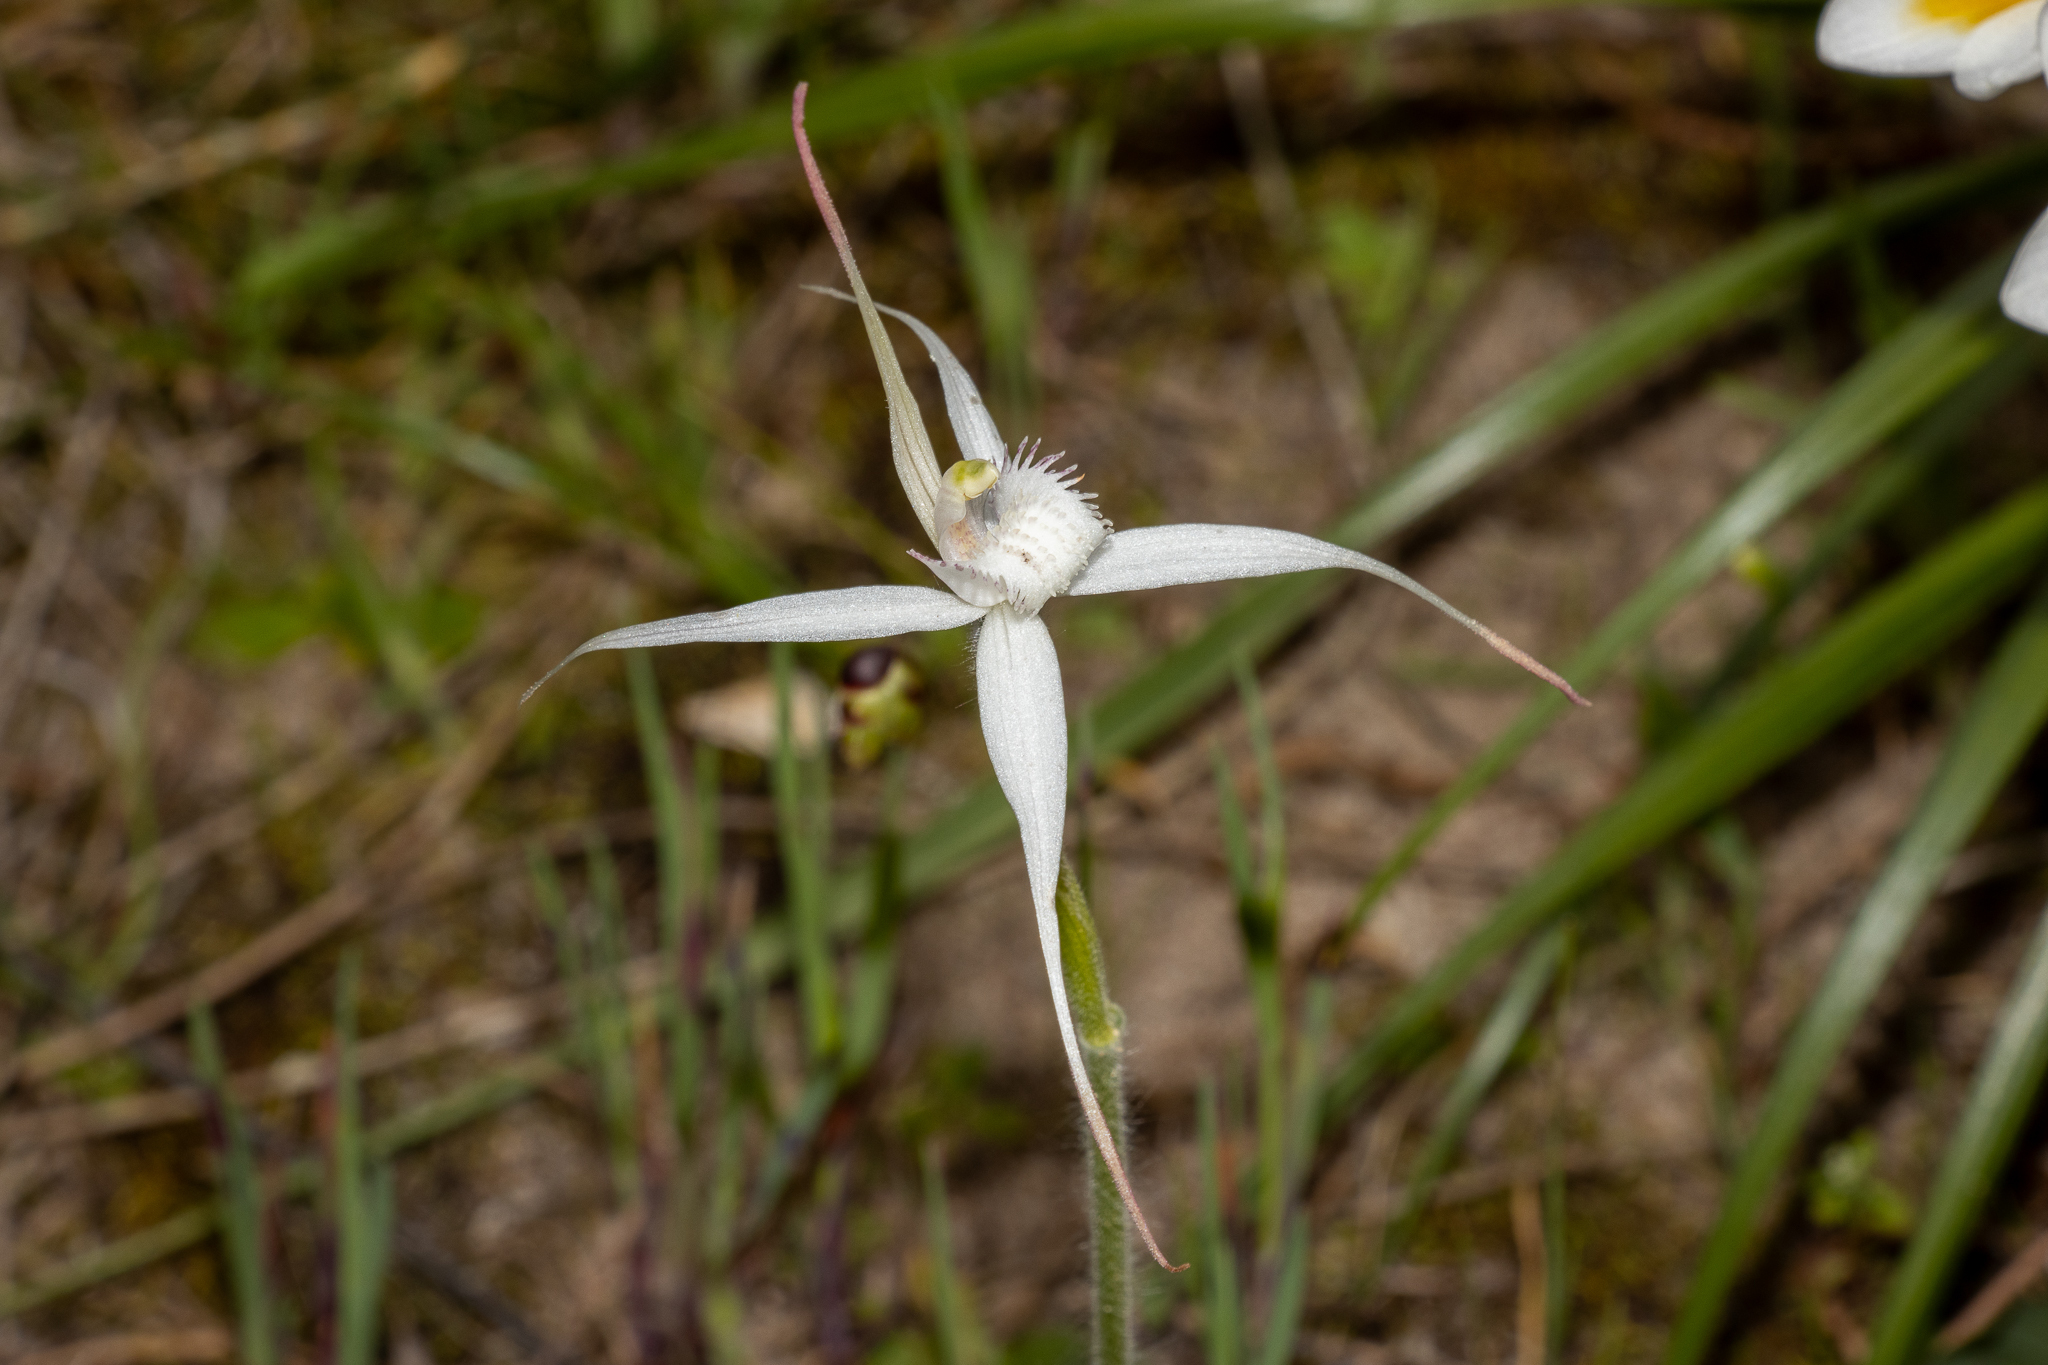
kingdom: Plantae
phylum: Tracheophyta
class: Liliopsida
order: Asparagales
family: Orchidaceae
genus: Caladenia
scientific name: Caladenia intuta
